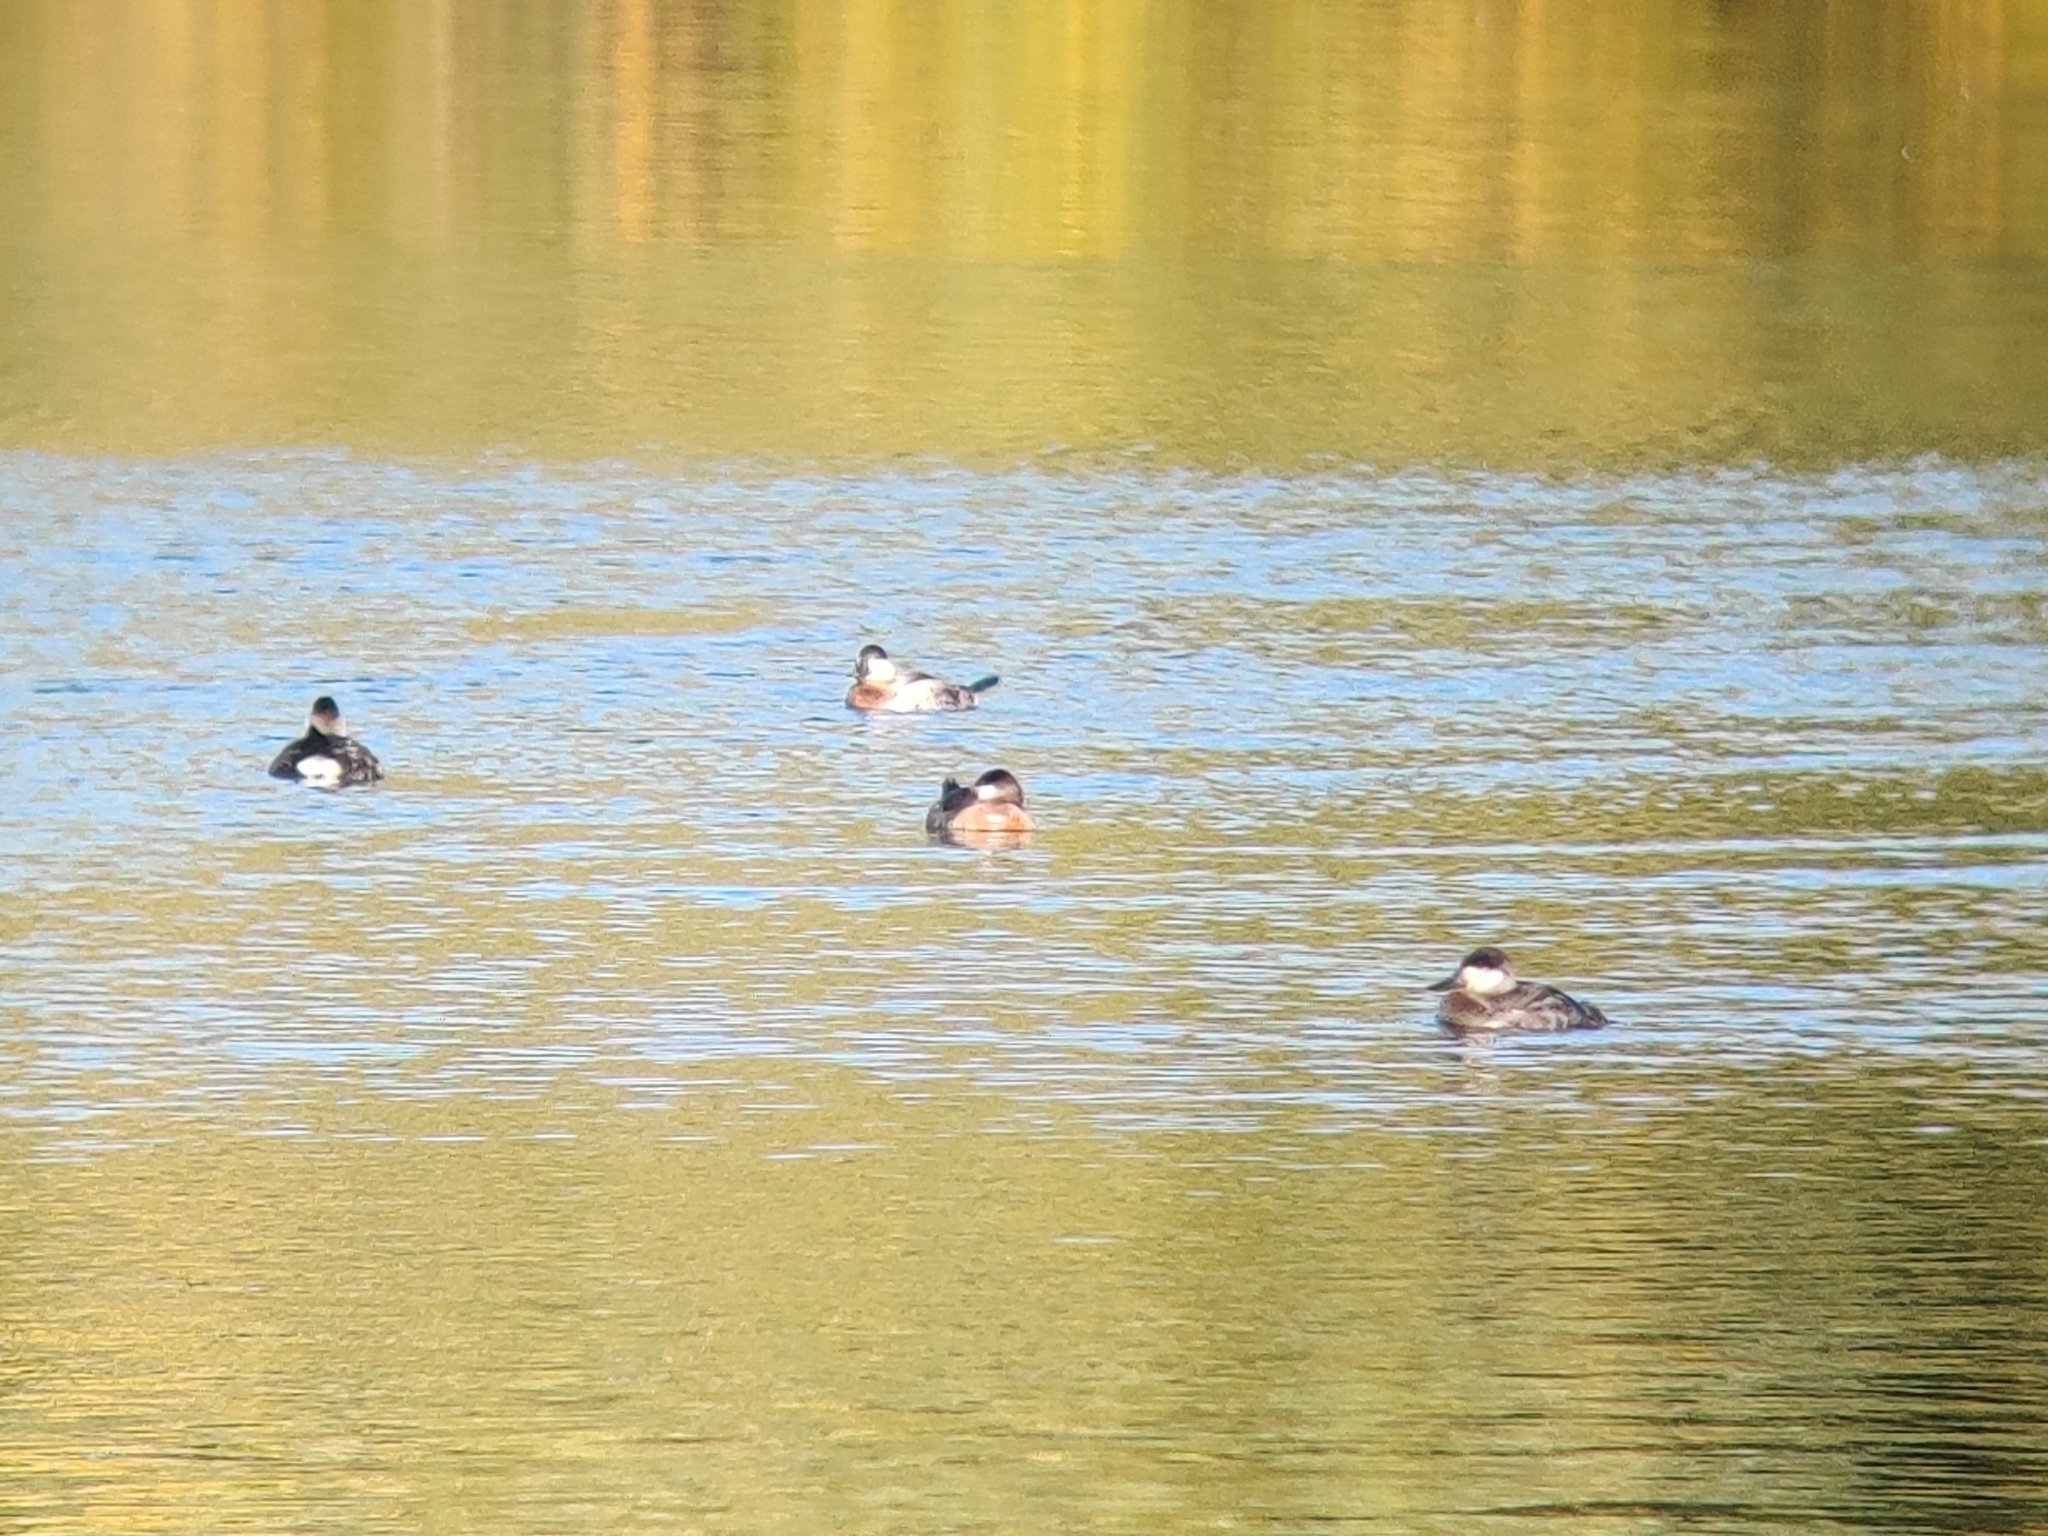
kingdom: Animalia
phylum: Chordata
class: Aves
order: Anseriformes
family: Anatidae
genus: Oxyura
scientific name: Oxyura jamaicensis
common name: Ruddy duck
